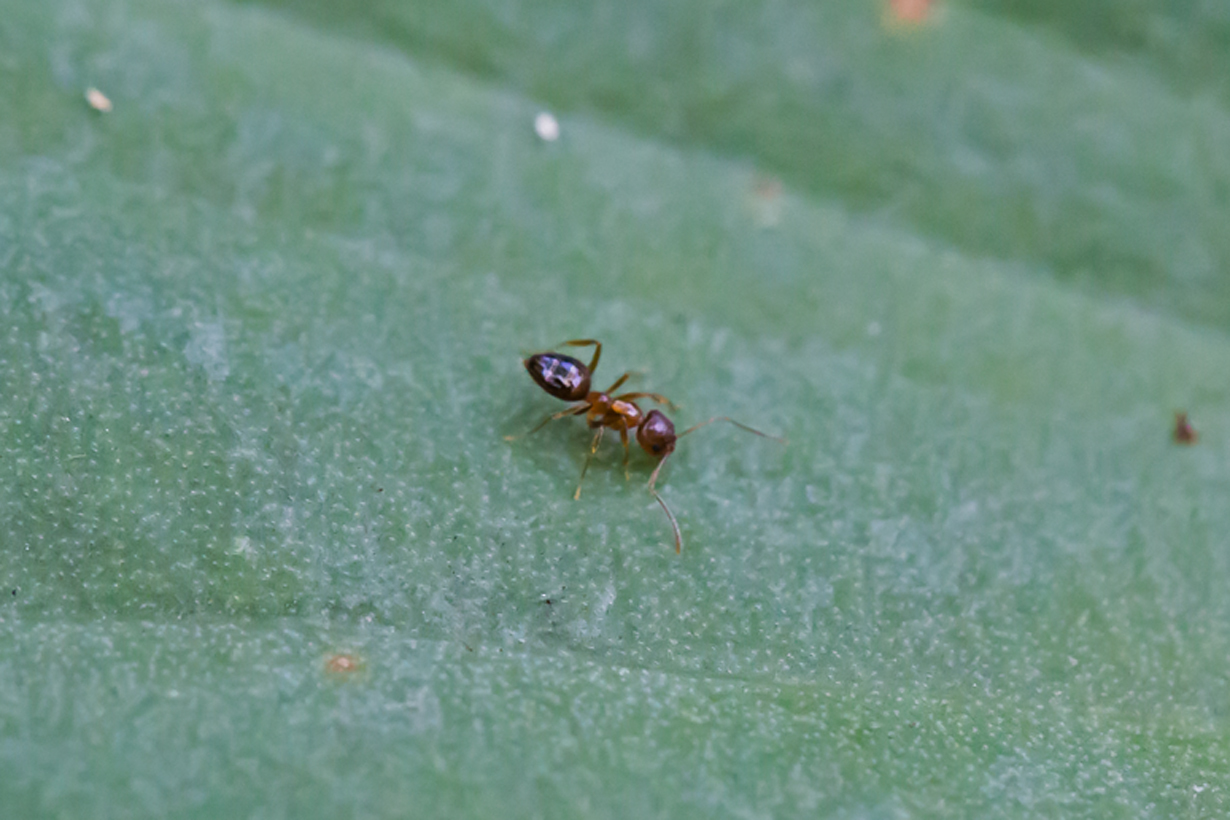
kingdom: Animalia
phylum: Arthropoda
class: Insecta
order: Hymenoptera
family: Formicidae
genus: Paratrechina
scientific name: Paratrechina flavipes
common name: Eastern asian formicine ant
